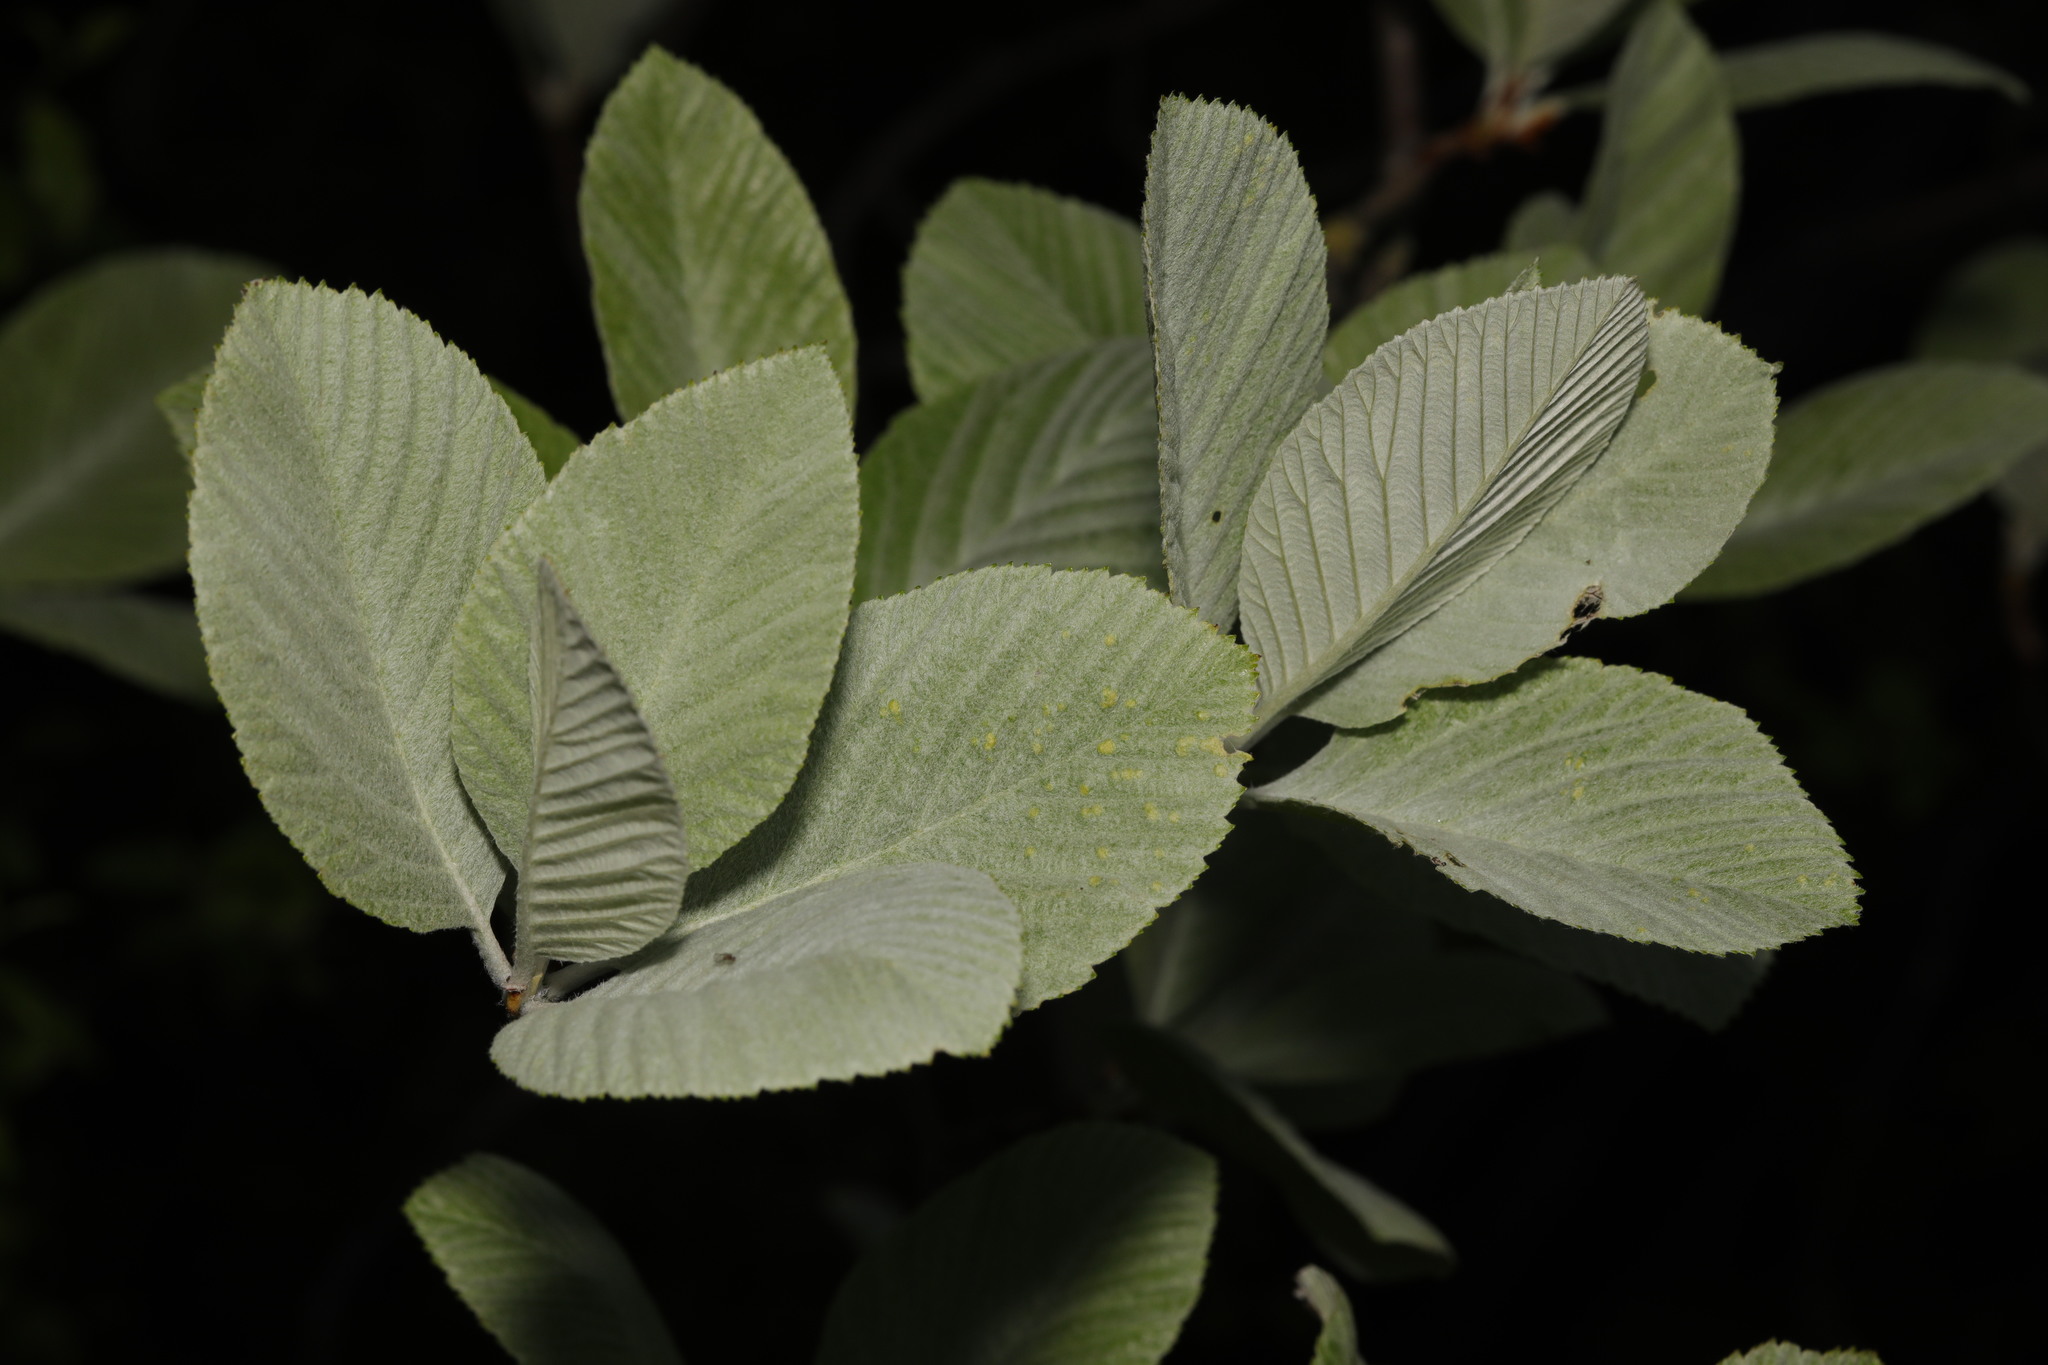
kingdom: Plantae
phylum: Tracheophyta
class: Magnoliopsida
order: Rosales
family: Rosaceae
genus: Aria
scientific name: Aria edulis
